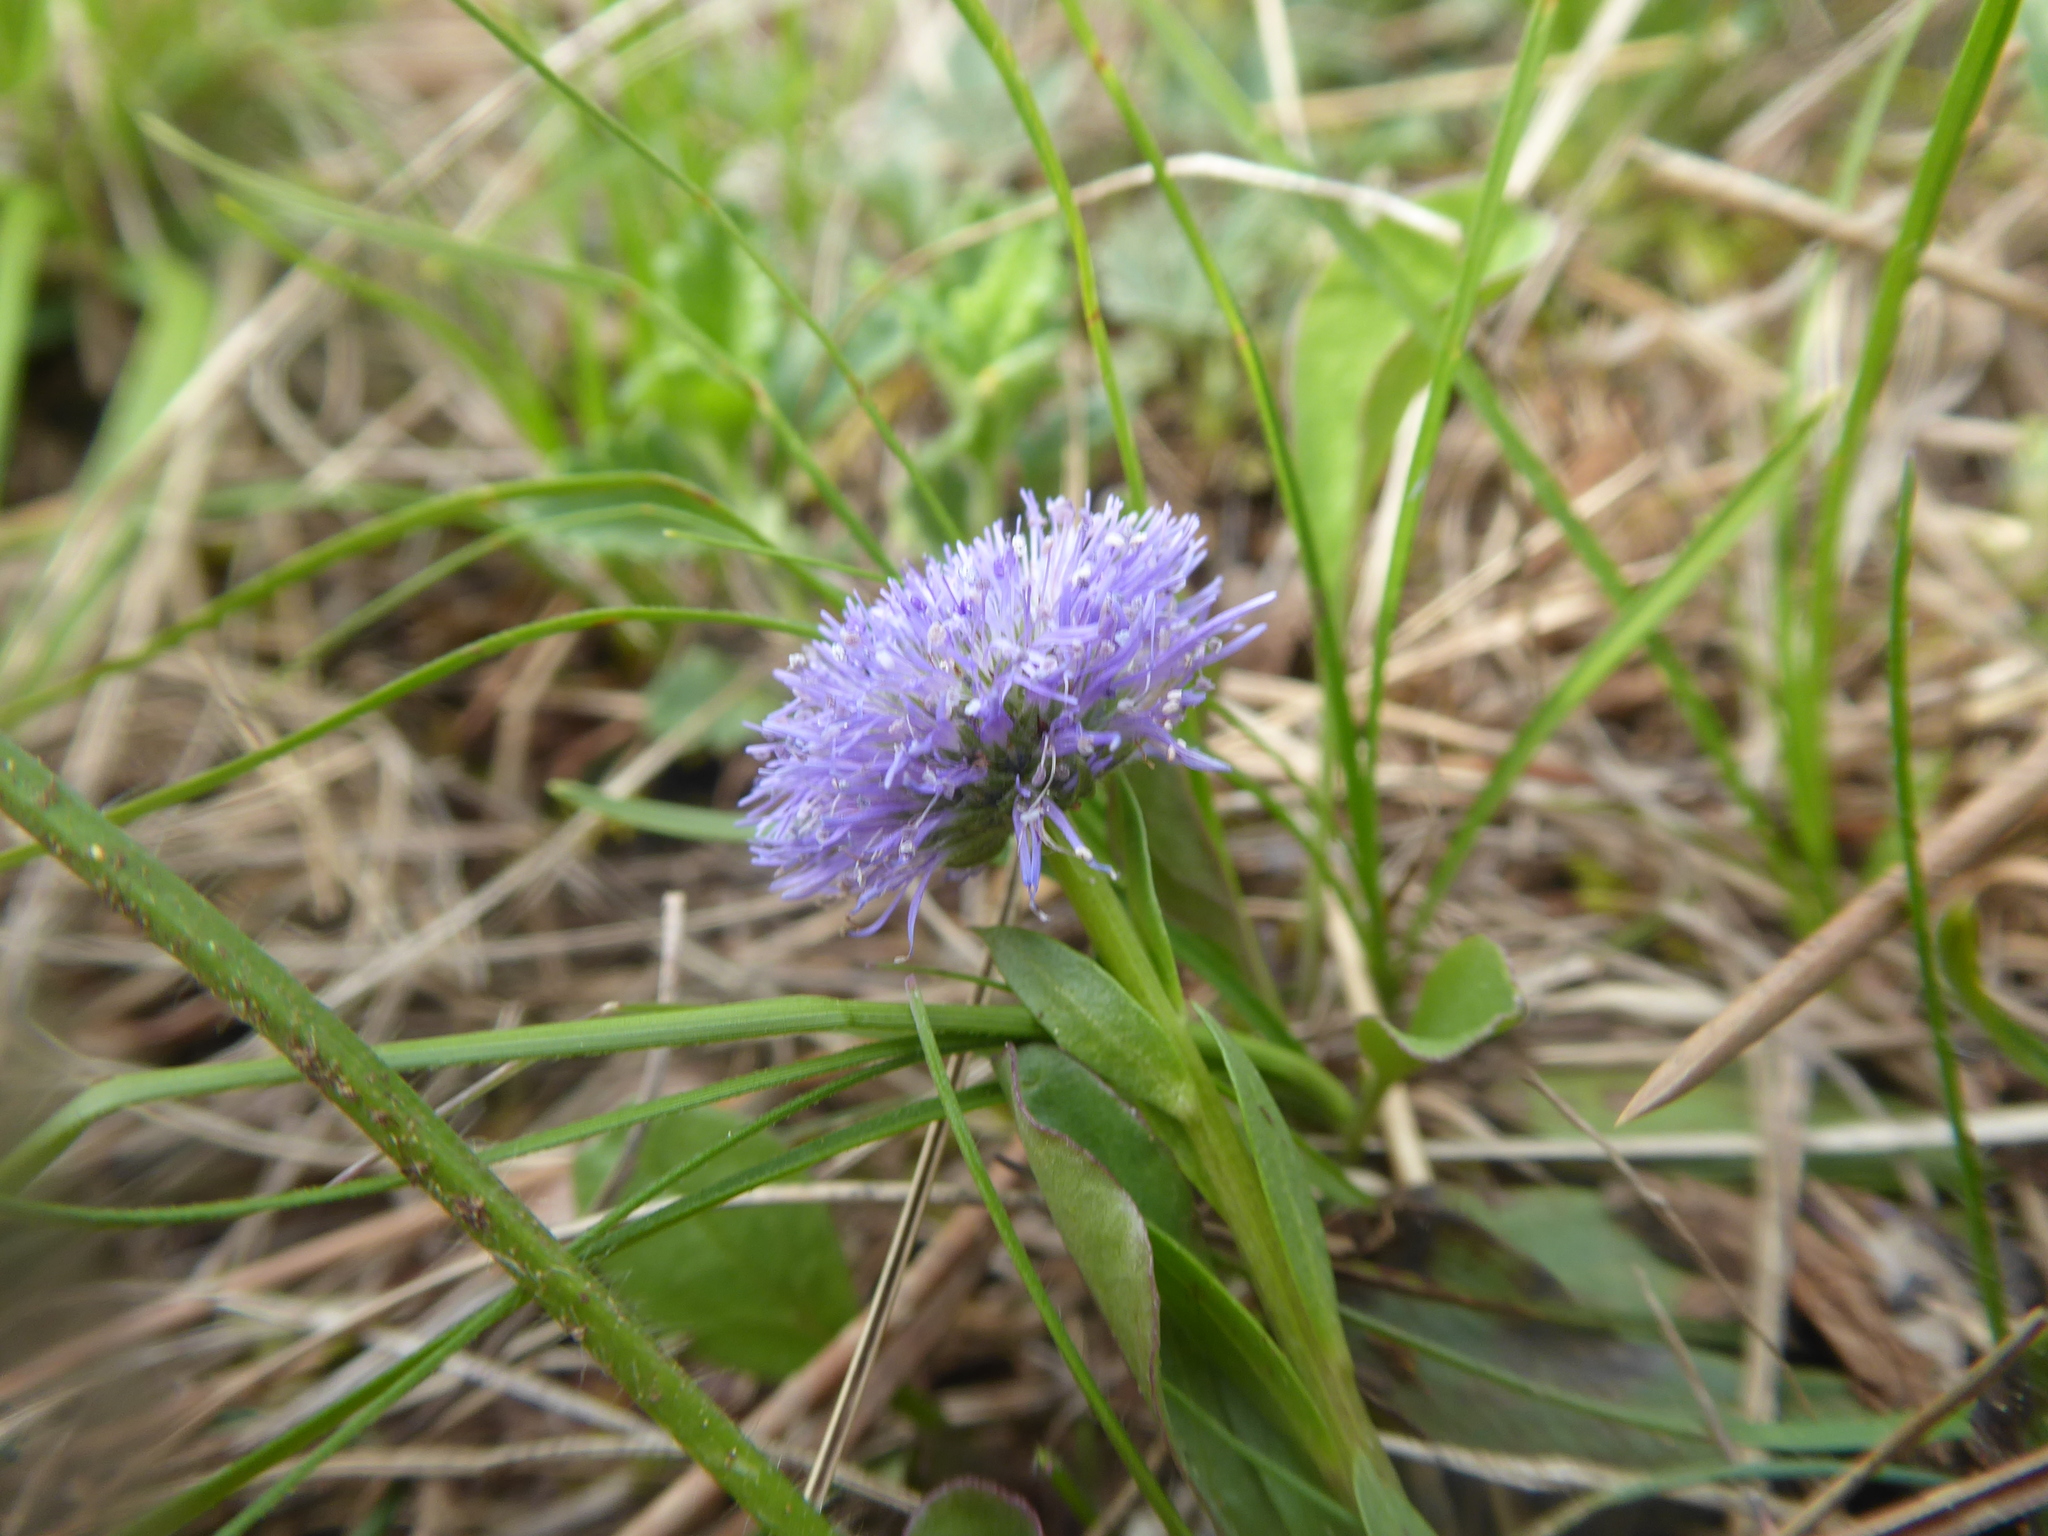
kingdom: Plantae
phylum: Tracheophyta
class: Magnoliopsida
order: Lamiales
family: Plantaginaceae
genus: Globularia
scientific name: Globularia bisnagarica
